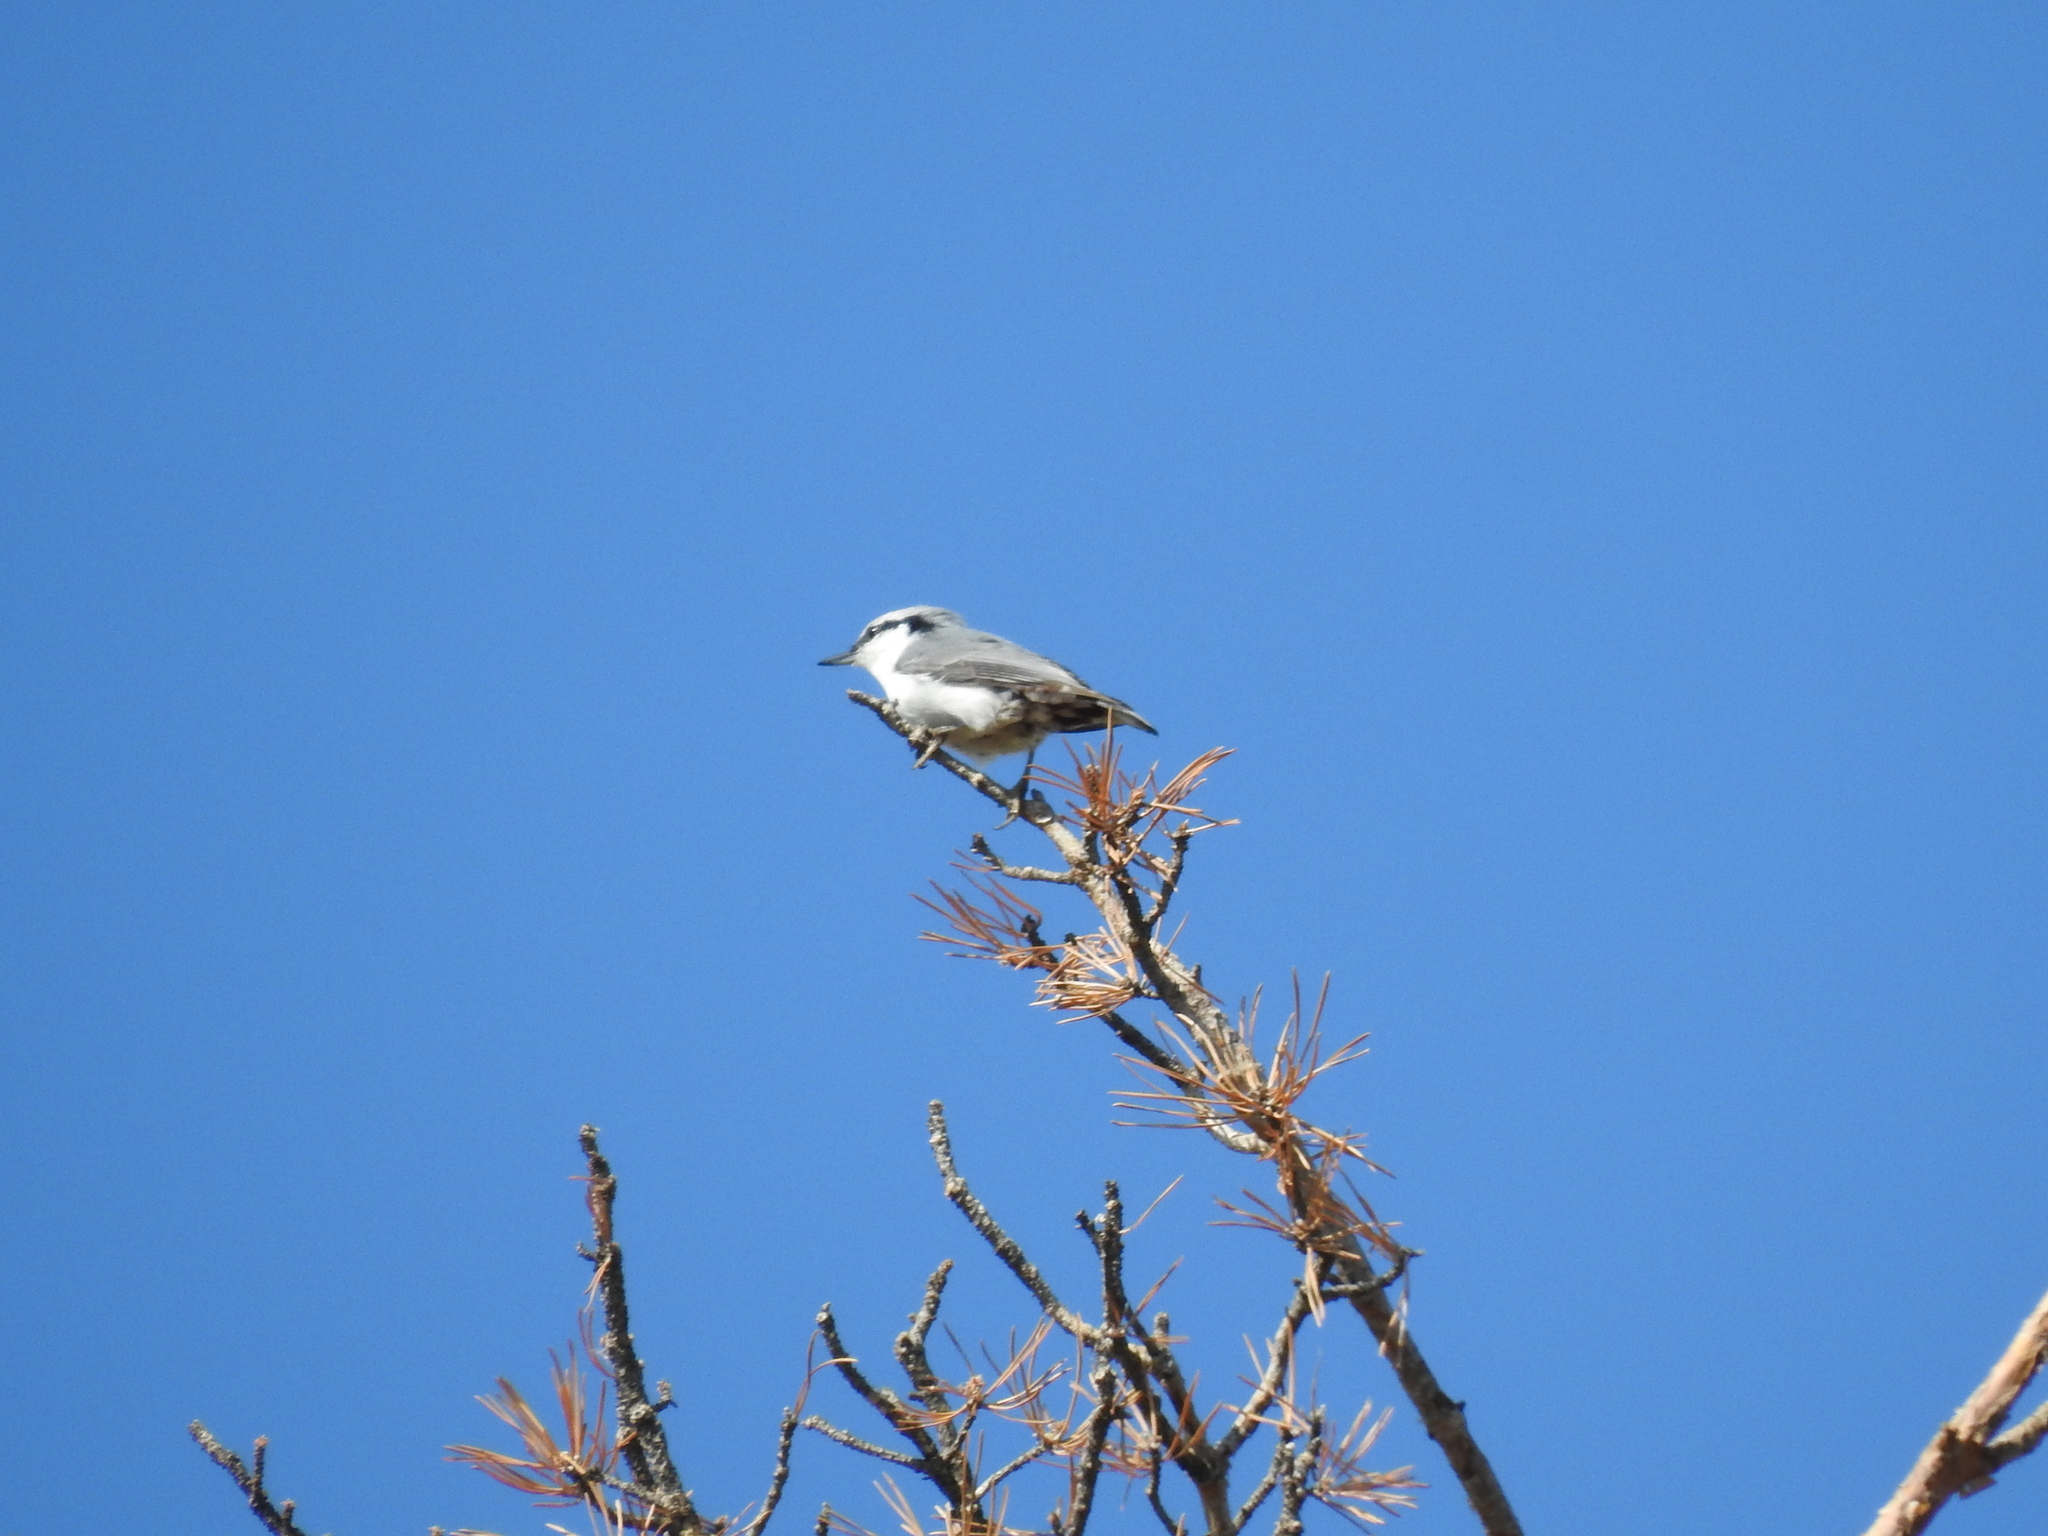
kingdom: Animalia
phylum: Chordata
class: Aves
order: Passeriformes
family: Sittidae
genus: Sitta
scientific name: Sitta europaea
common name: Eurasian nuthatch
